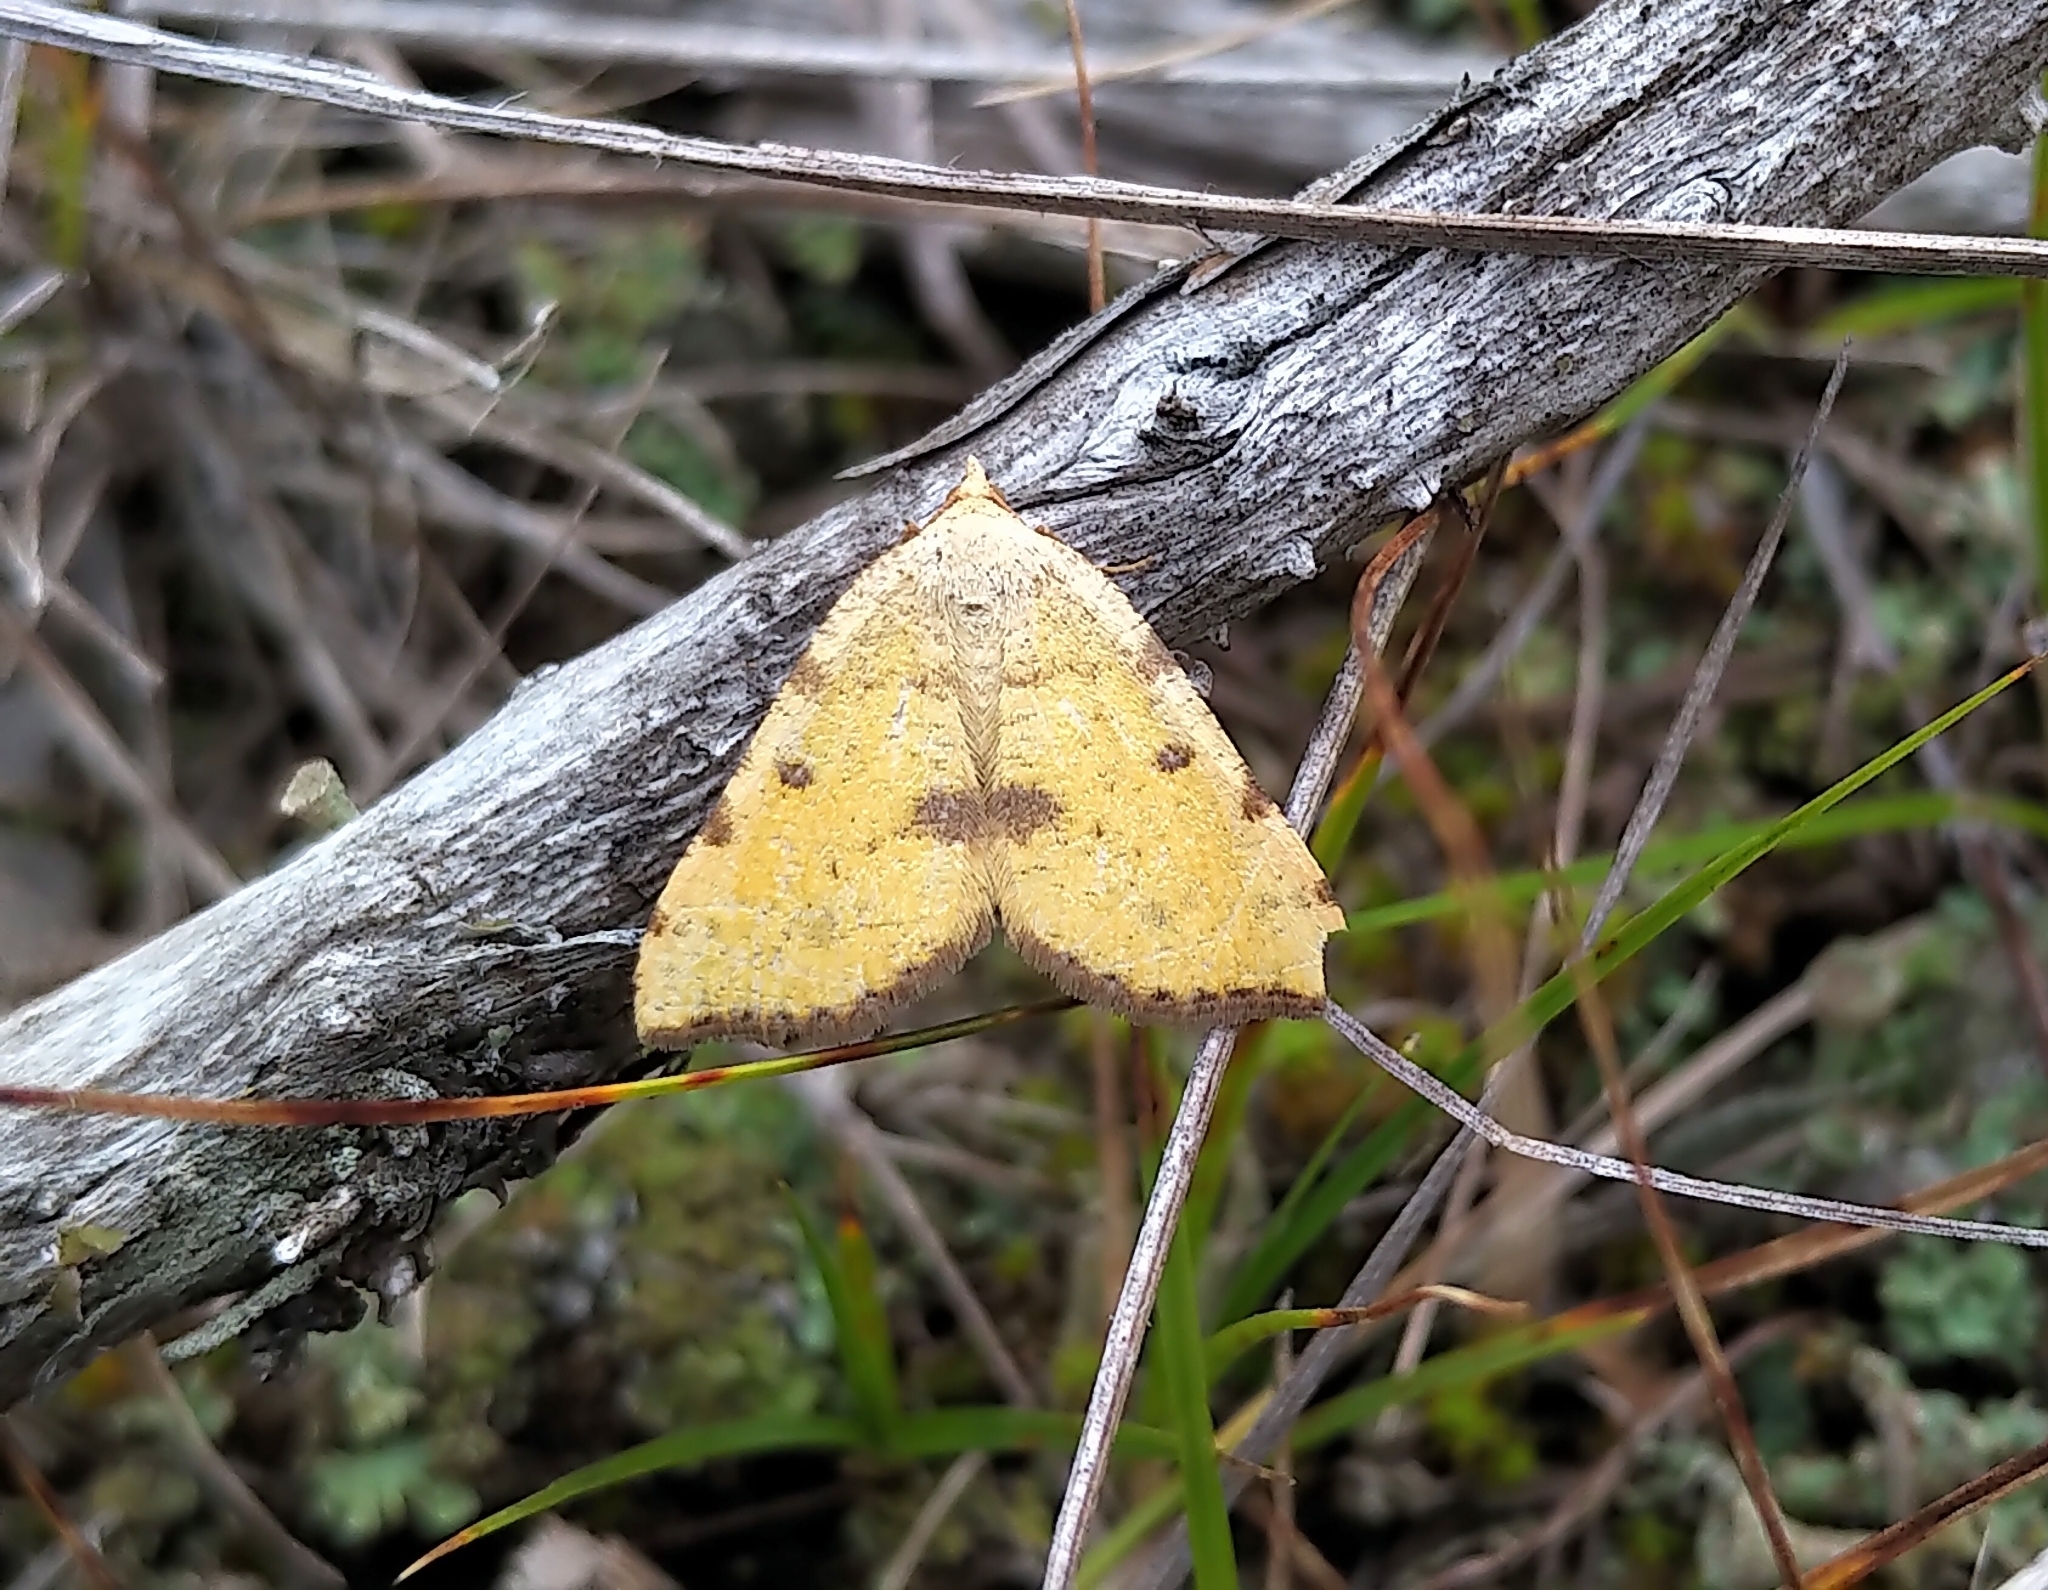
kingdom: Animalia
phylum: Arthropoda
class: Insecta
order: Lepidoptera
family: Geometridae
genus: Macaria
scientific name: Macaria amboflava
